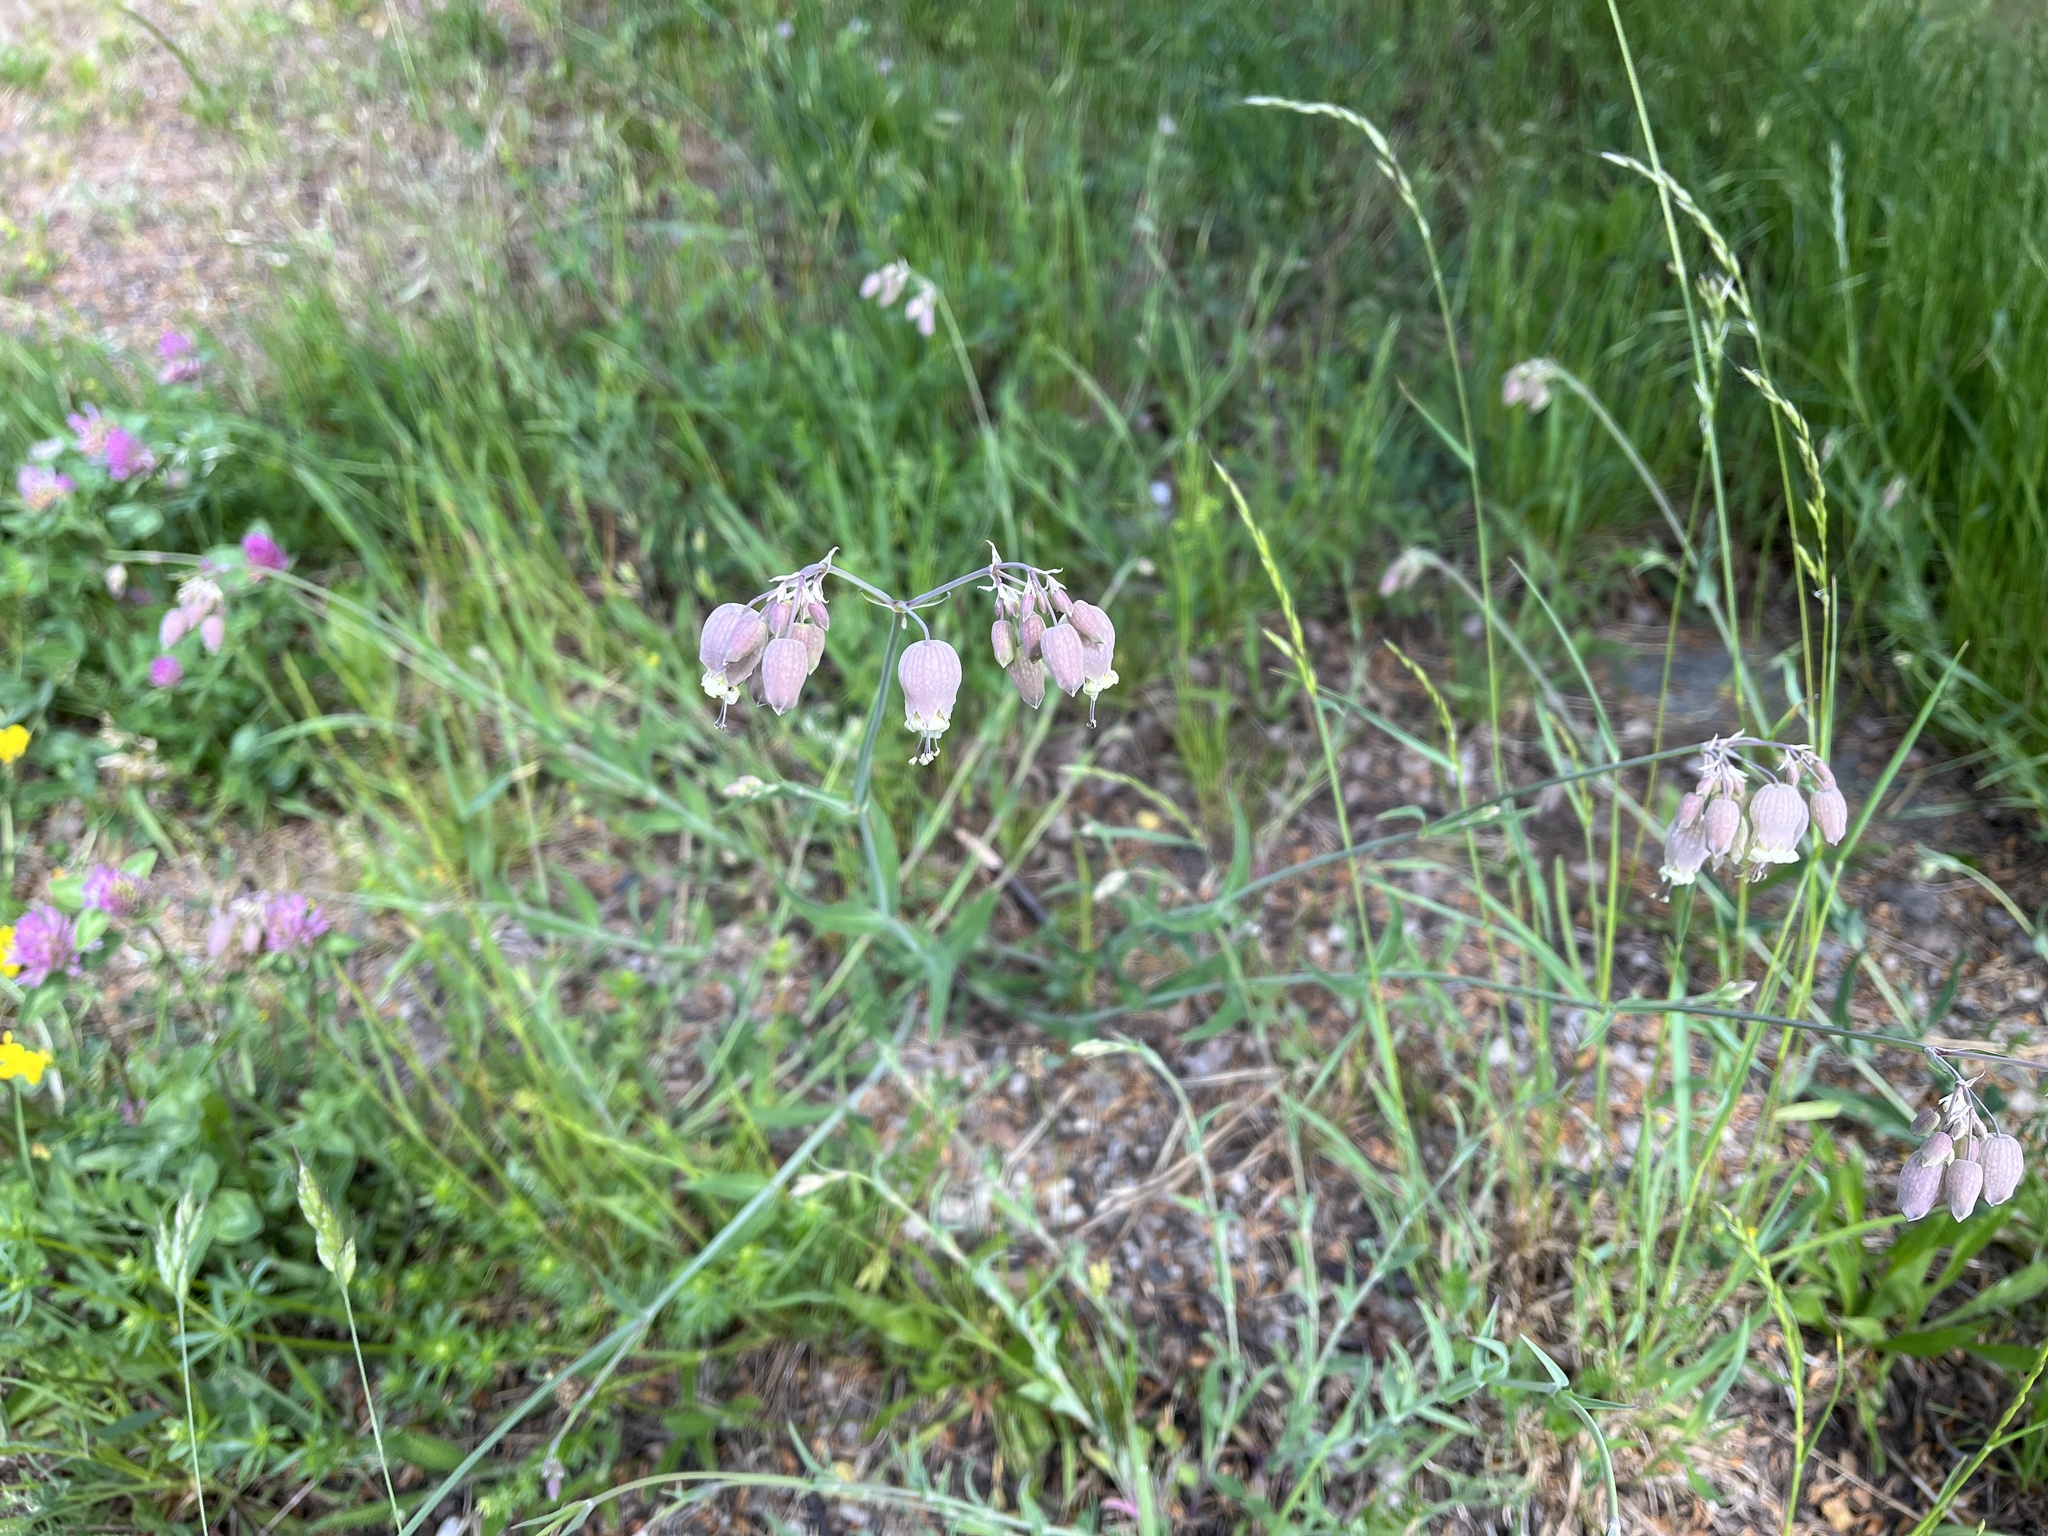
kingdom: Plantae
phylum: Tracheophyta
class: Magnoliopsida
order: Caryophyllales
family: Caryophyllaceae
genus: Silene
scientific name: Silene vulgaris
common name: Bladder campion
